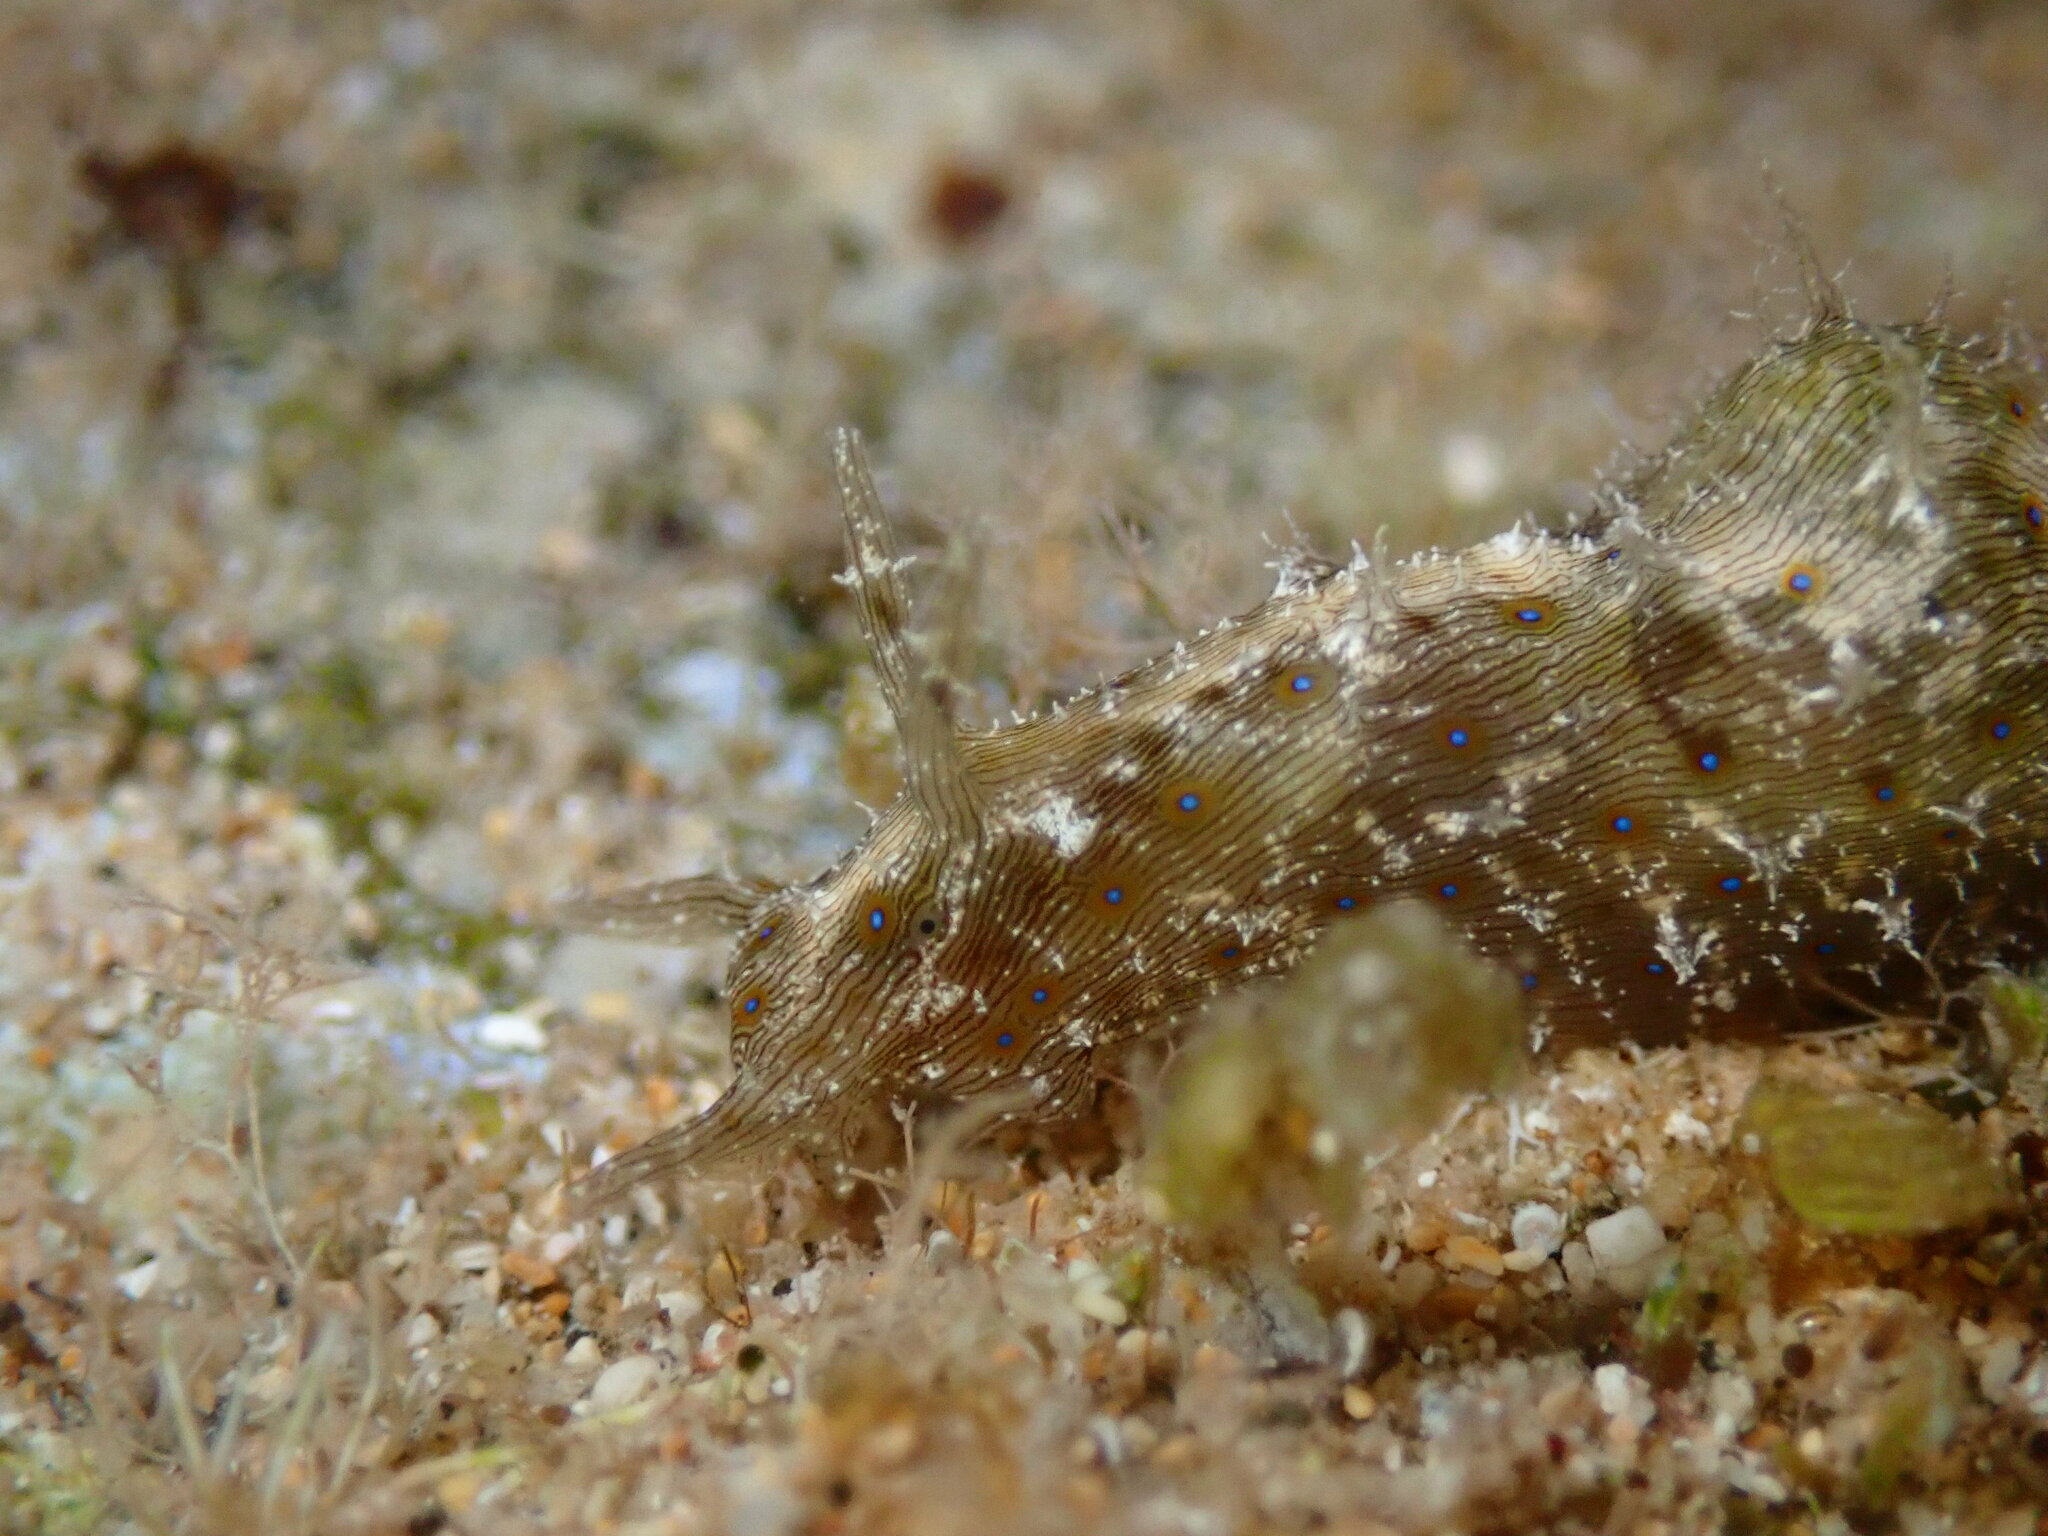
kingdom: Animalia
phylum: Mollusca
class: Gastropoda
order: Aplysiida
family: Aplysiidae
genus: Stylocheilus
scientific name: Stylocheilus striatus
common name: Striated seahare
